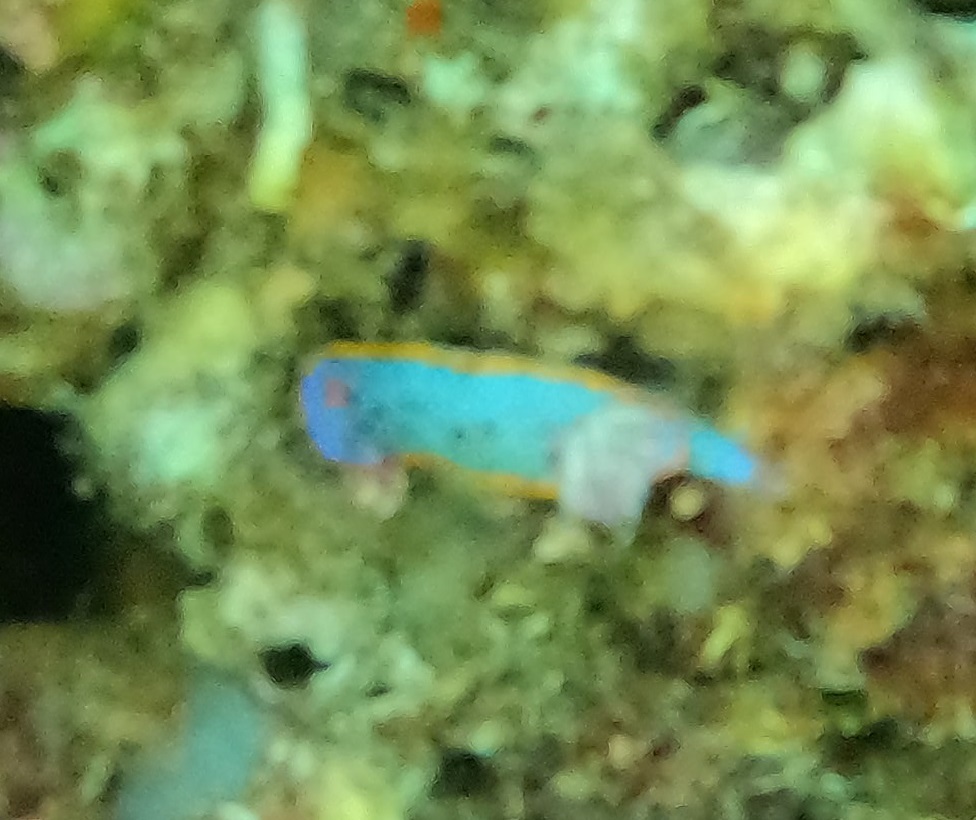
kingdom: Animalia
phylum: Mollusca
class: Gastropoda
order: Nudibranchia
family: Chromodorididae
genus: Hypselodoris
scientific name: Hypselodoris bennetti
